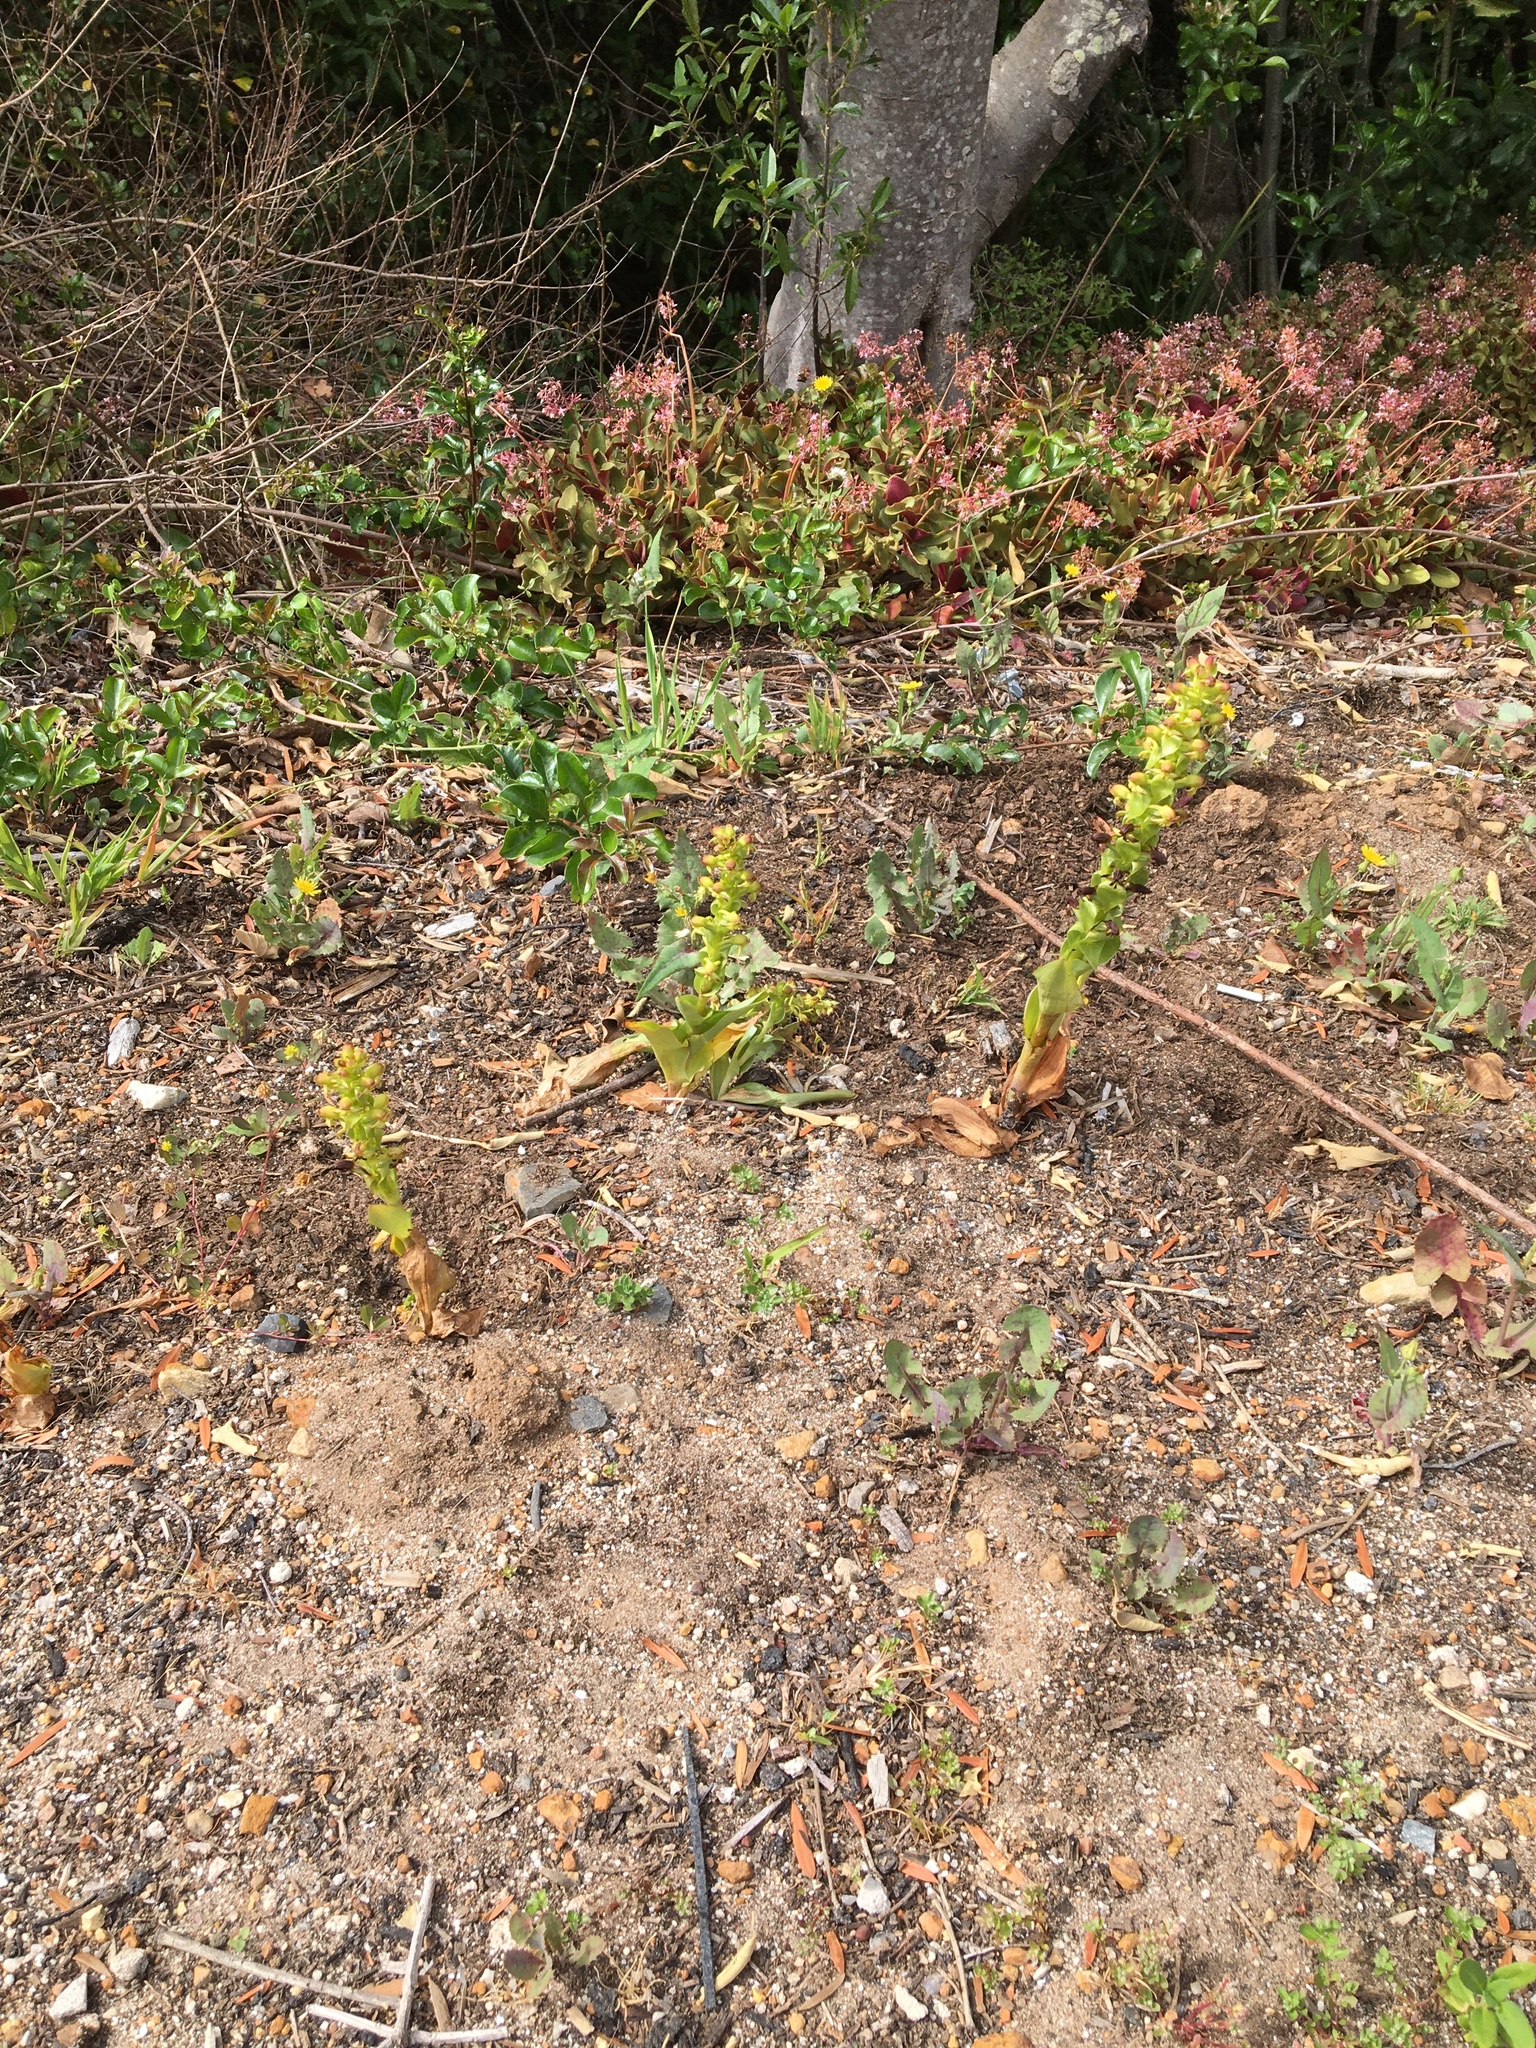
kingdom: Plantae
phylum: Tracheophyta
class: Liliopsida
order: Asparagales
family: Orchidaceae
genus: Satyrium
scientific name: Satyrium odorum
